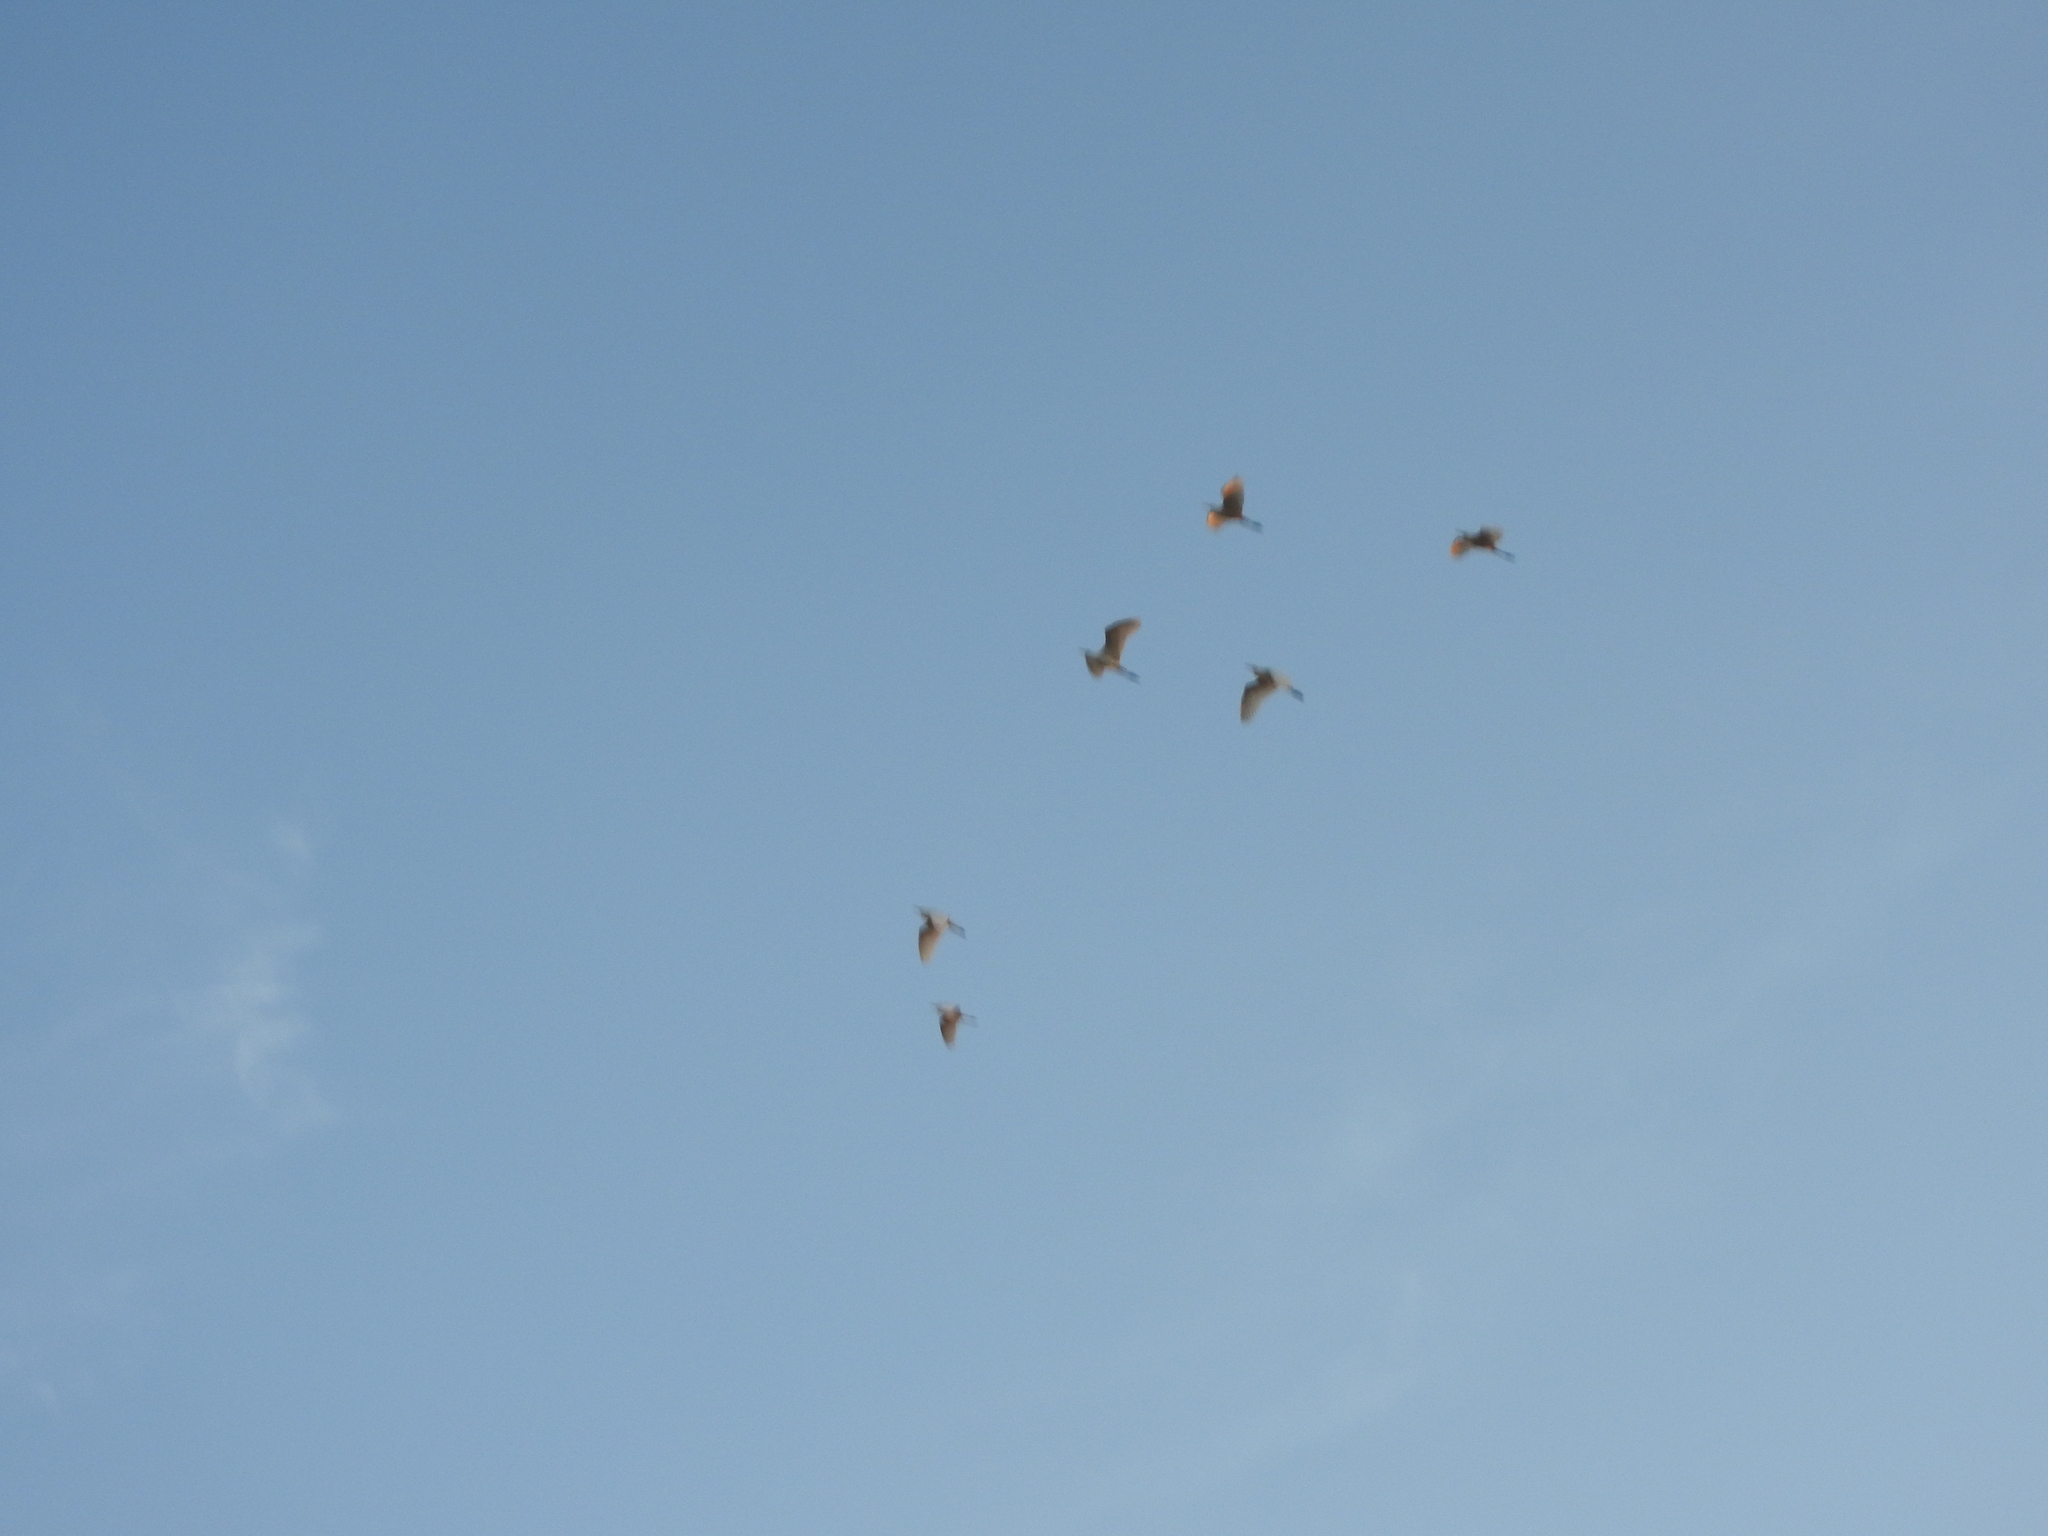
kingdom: Animalia
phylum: Chordata
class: Aves
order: Pelecaniformes
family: Ardeidae
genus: Bubulcus
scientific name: Bubulcus ibis
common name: Cattle egret
